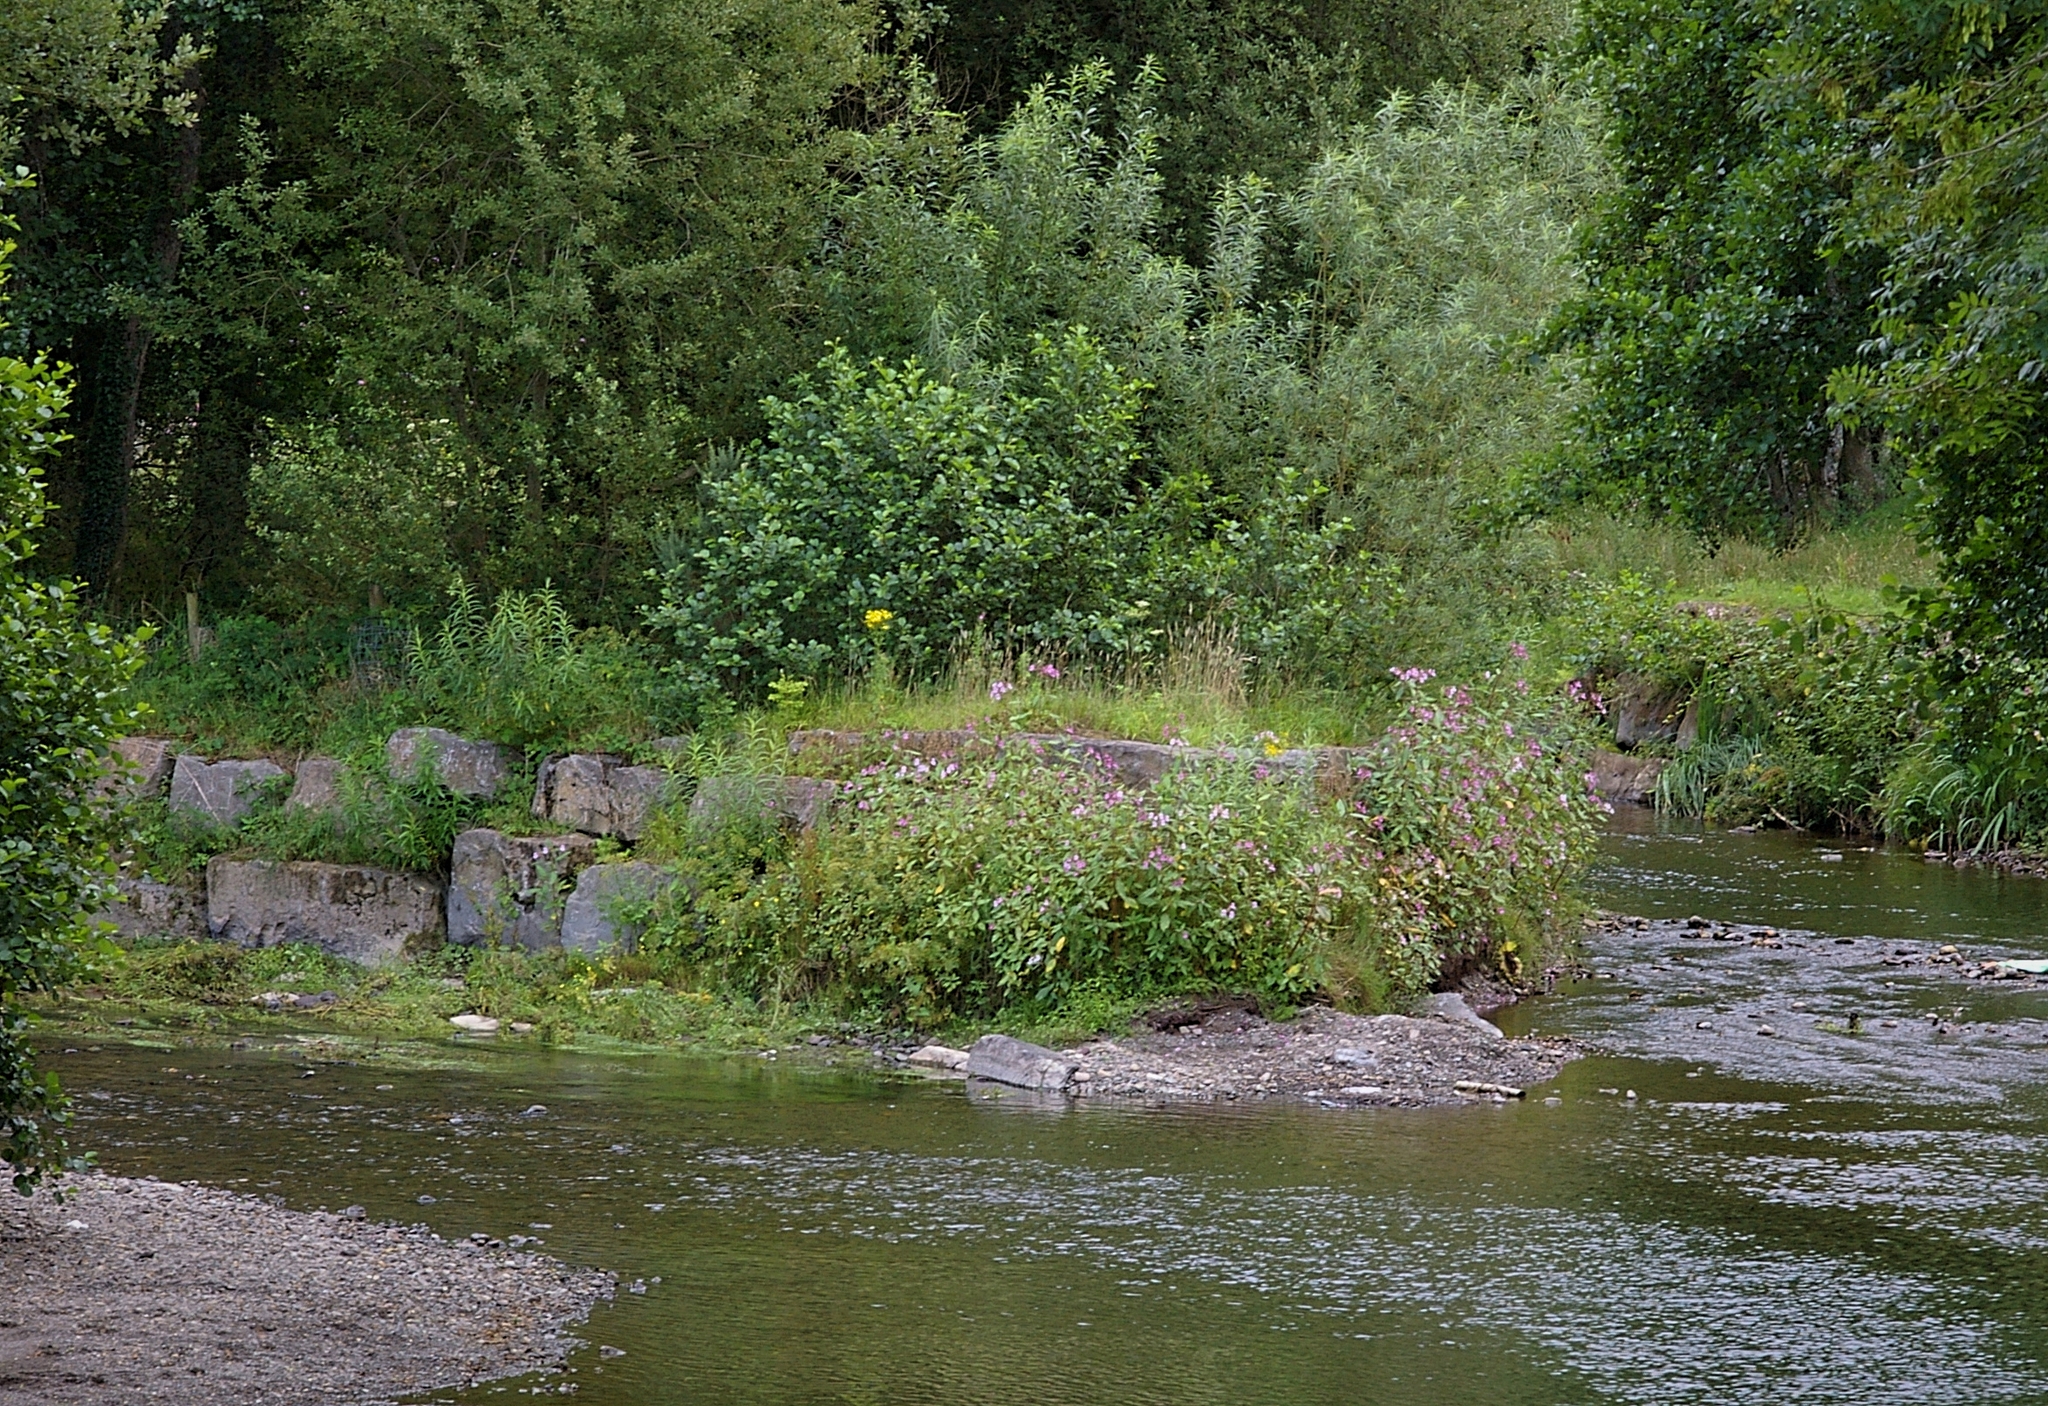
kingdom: Plantae
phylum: Tracheophyta
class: Magnoliopsida
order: Ericales
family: Balsaminaceae
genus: Impatiens
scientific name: Impatiens glandulifera
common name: Himalayan balsam
